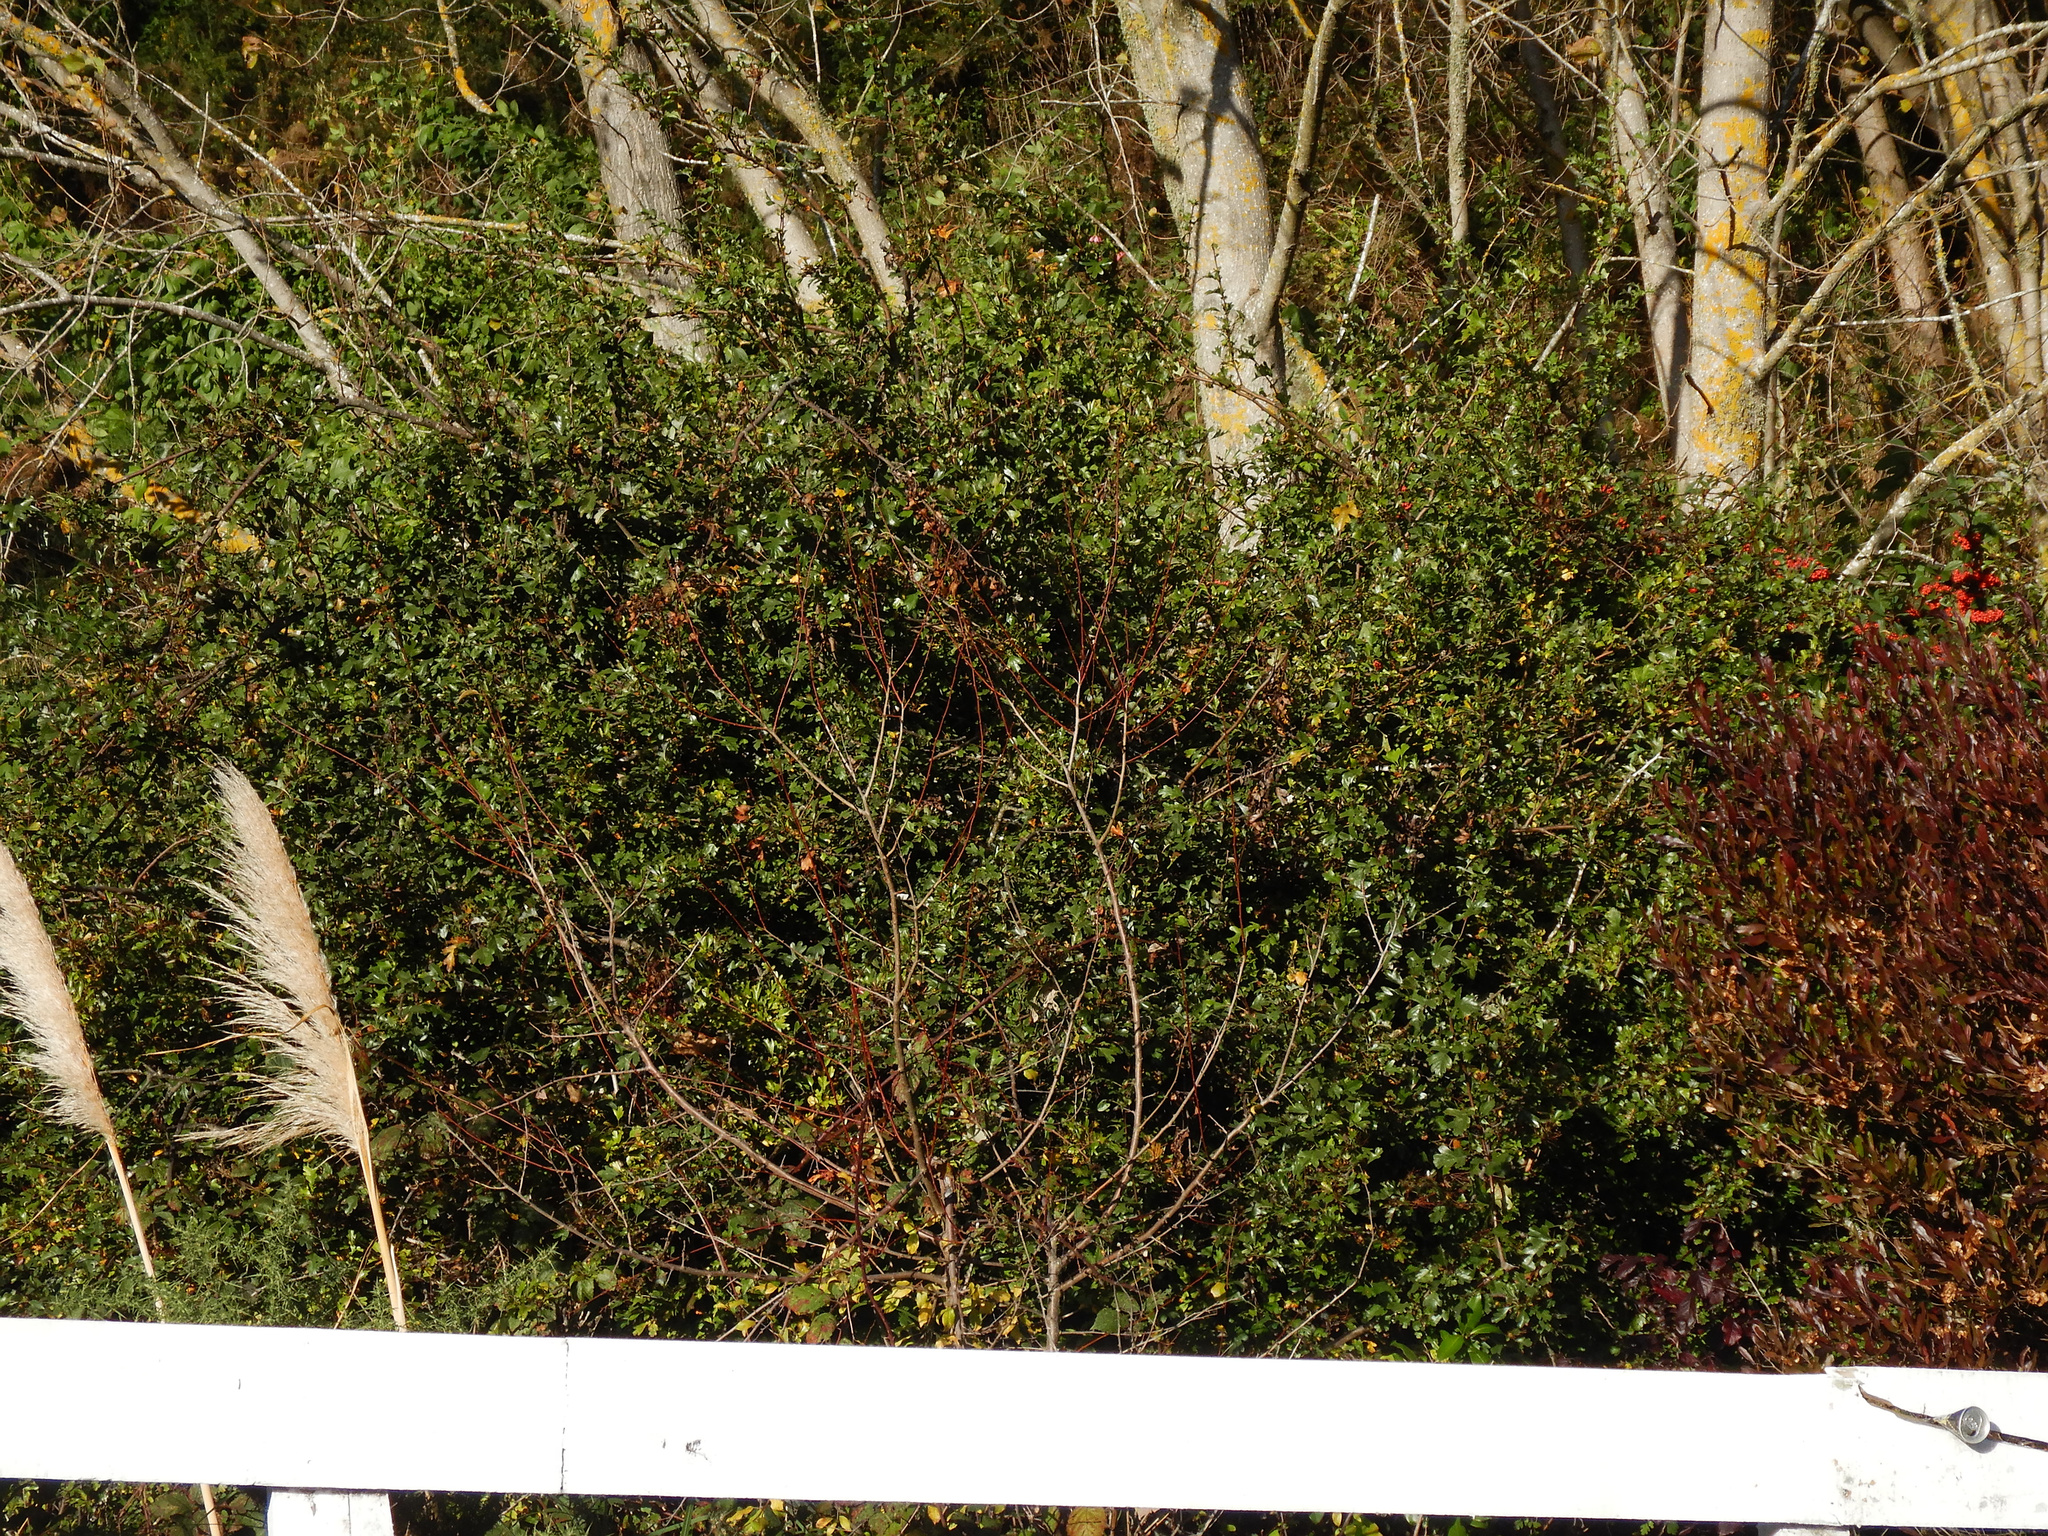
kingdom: Plantae
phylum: Tracheophyta
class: Magnoliopsida
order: Rosales
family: Rosaceae
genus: Crataegus
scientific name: Crataegus monogyna
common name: Hawthorn
